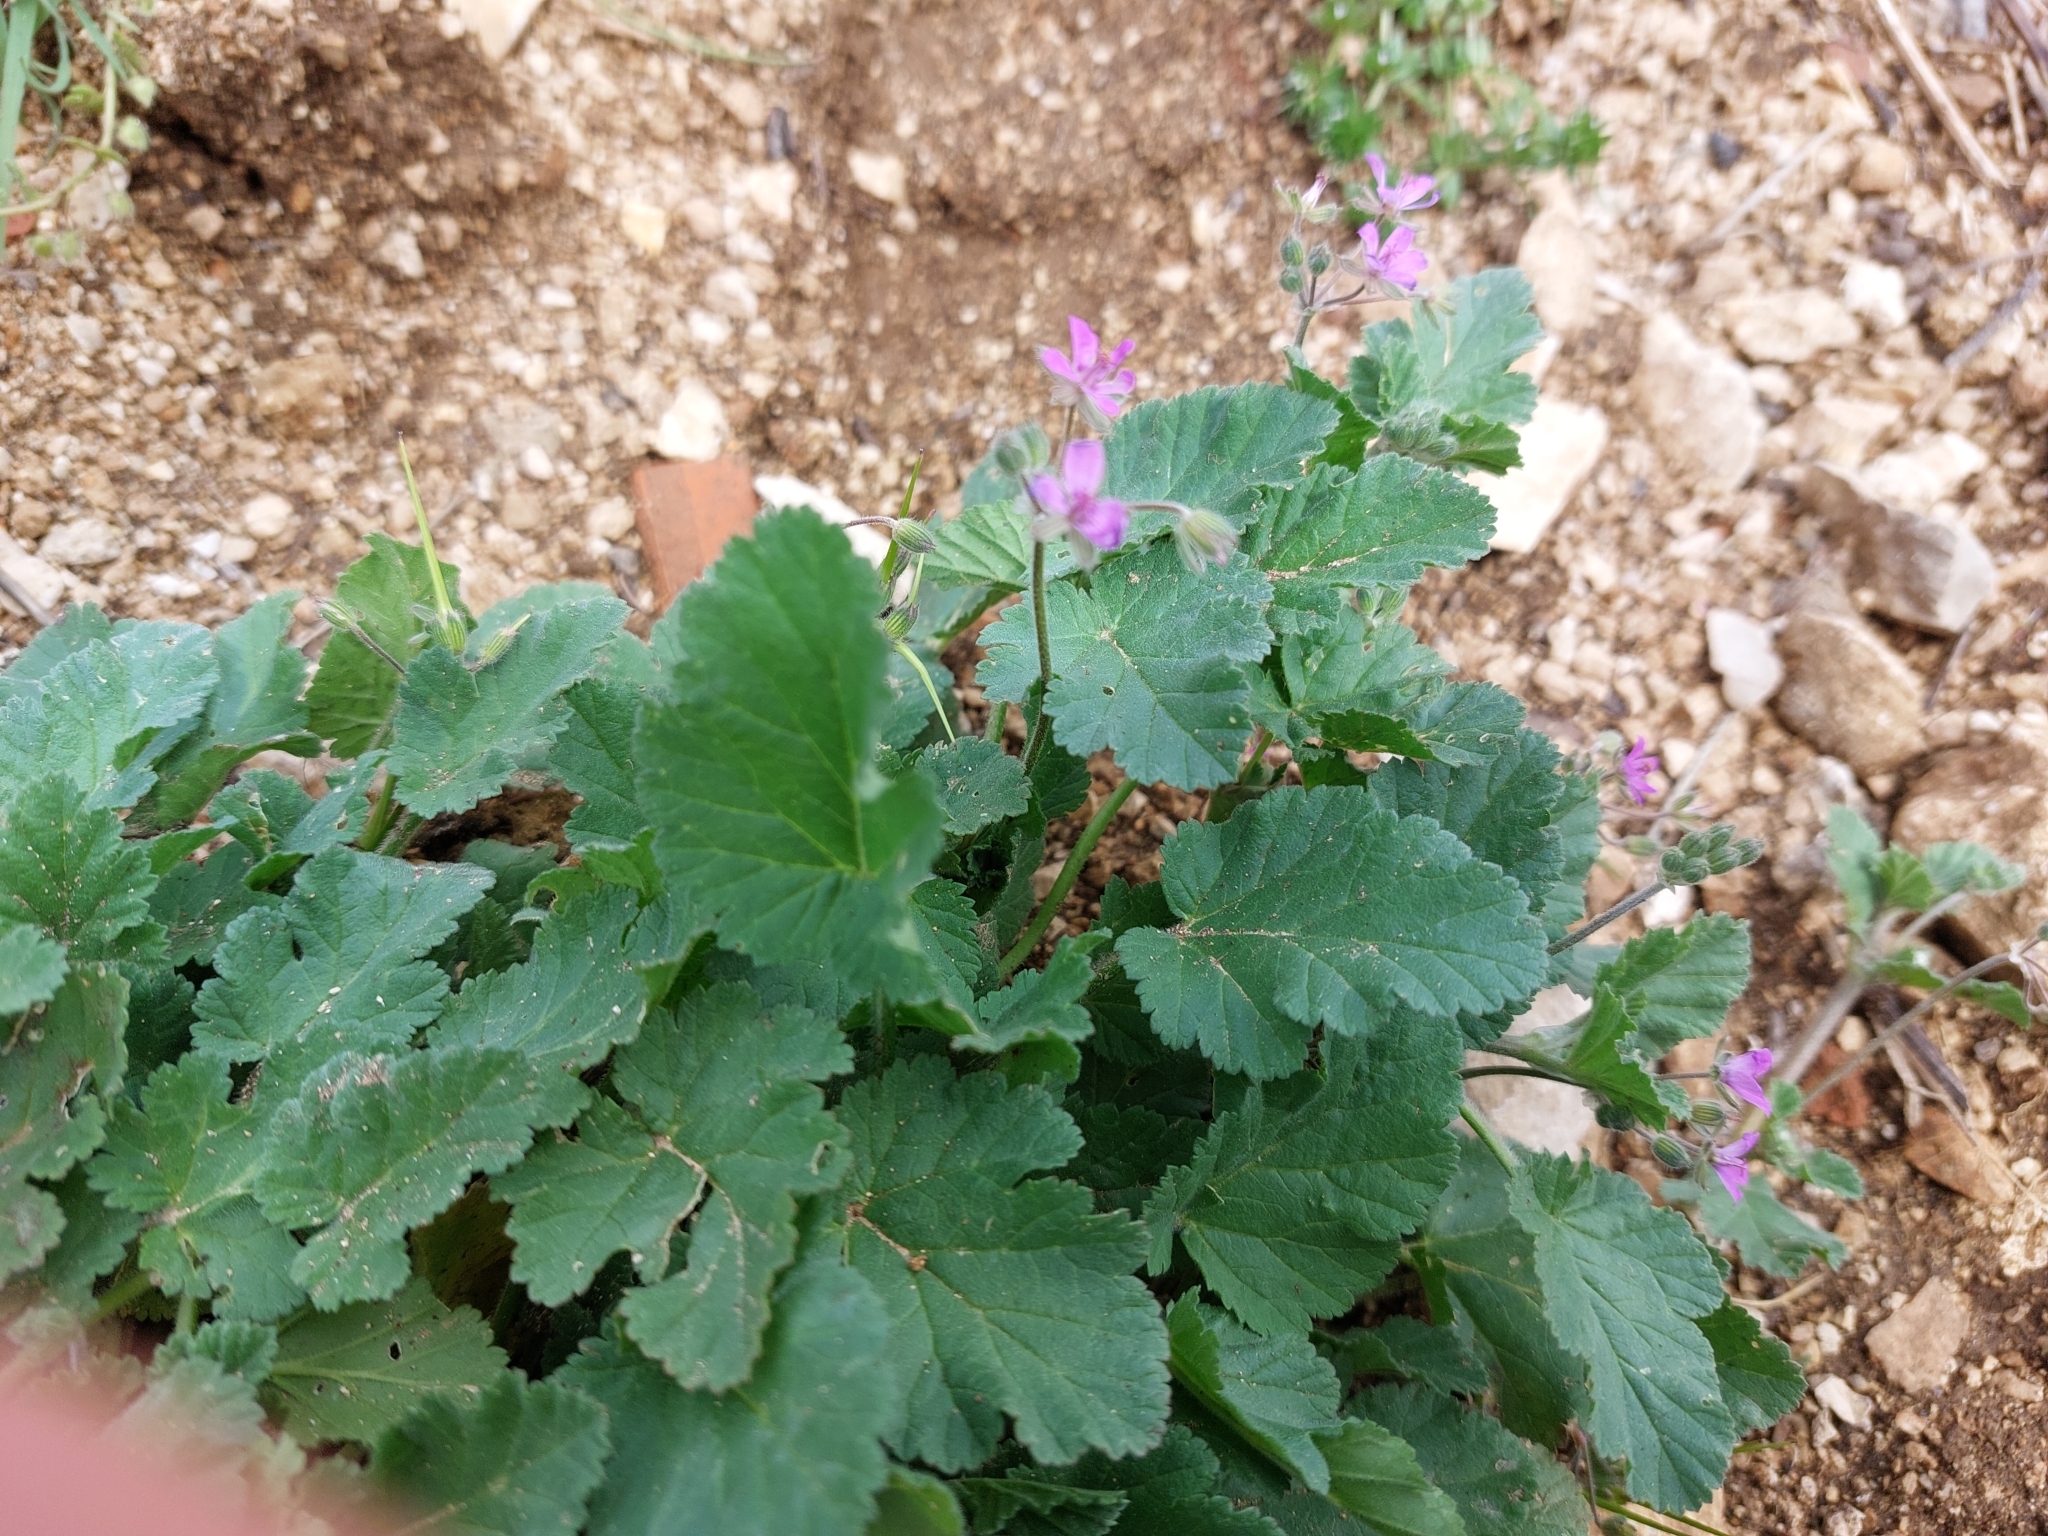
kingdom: Plantae
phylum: Tracheophyta
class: Magnoliopsida
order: Geraniales
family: Geraniaceae
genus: Erodium
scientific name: Erodium malacoides
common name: Soft stork's-bill
